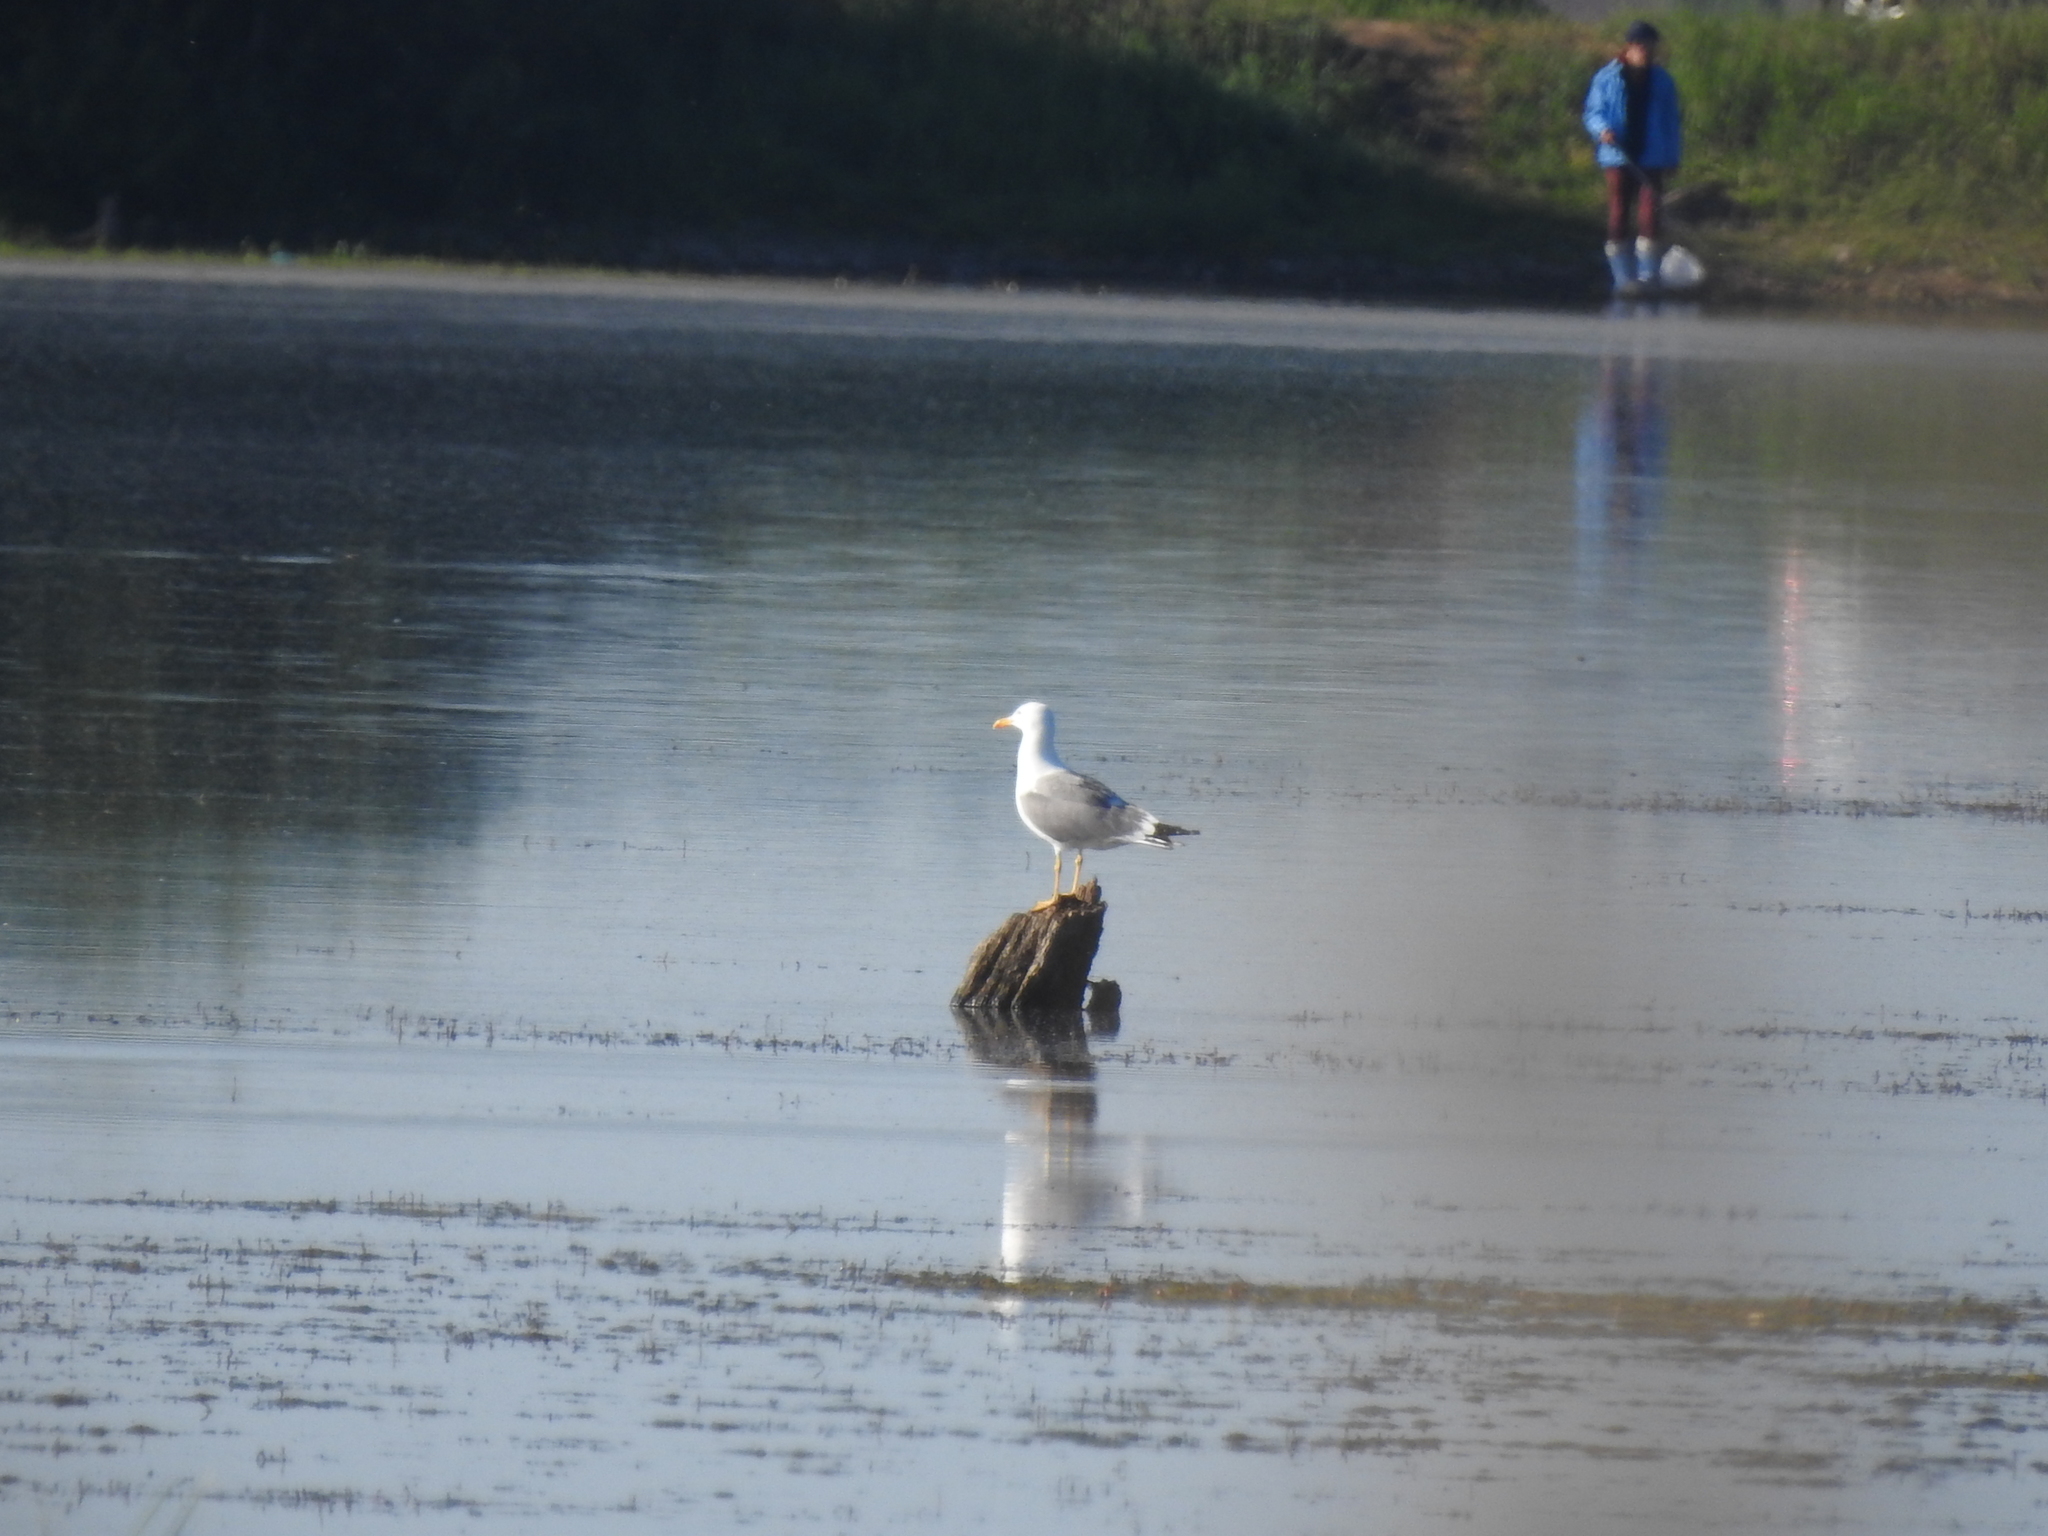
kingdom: Animalia
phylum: Chordata
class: Aves
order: Charadriiformes
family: Laridae
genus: Larus
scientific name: Larus fuscus
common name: Lesser black-backed gull
